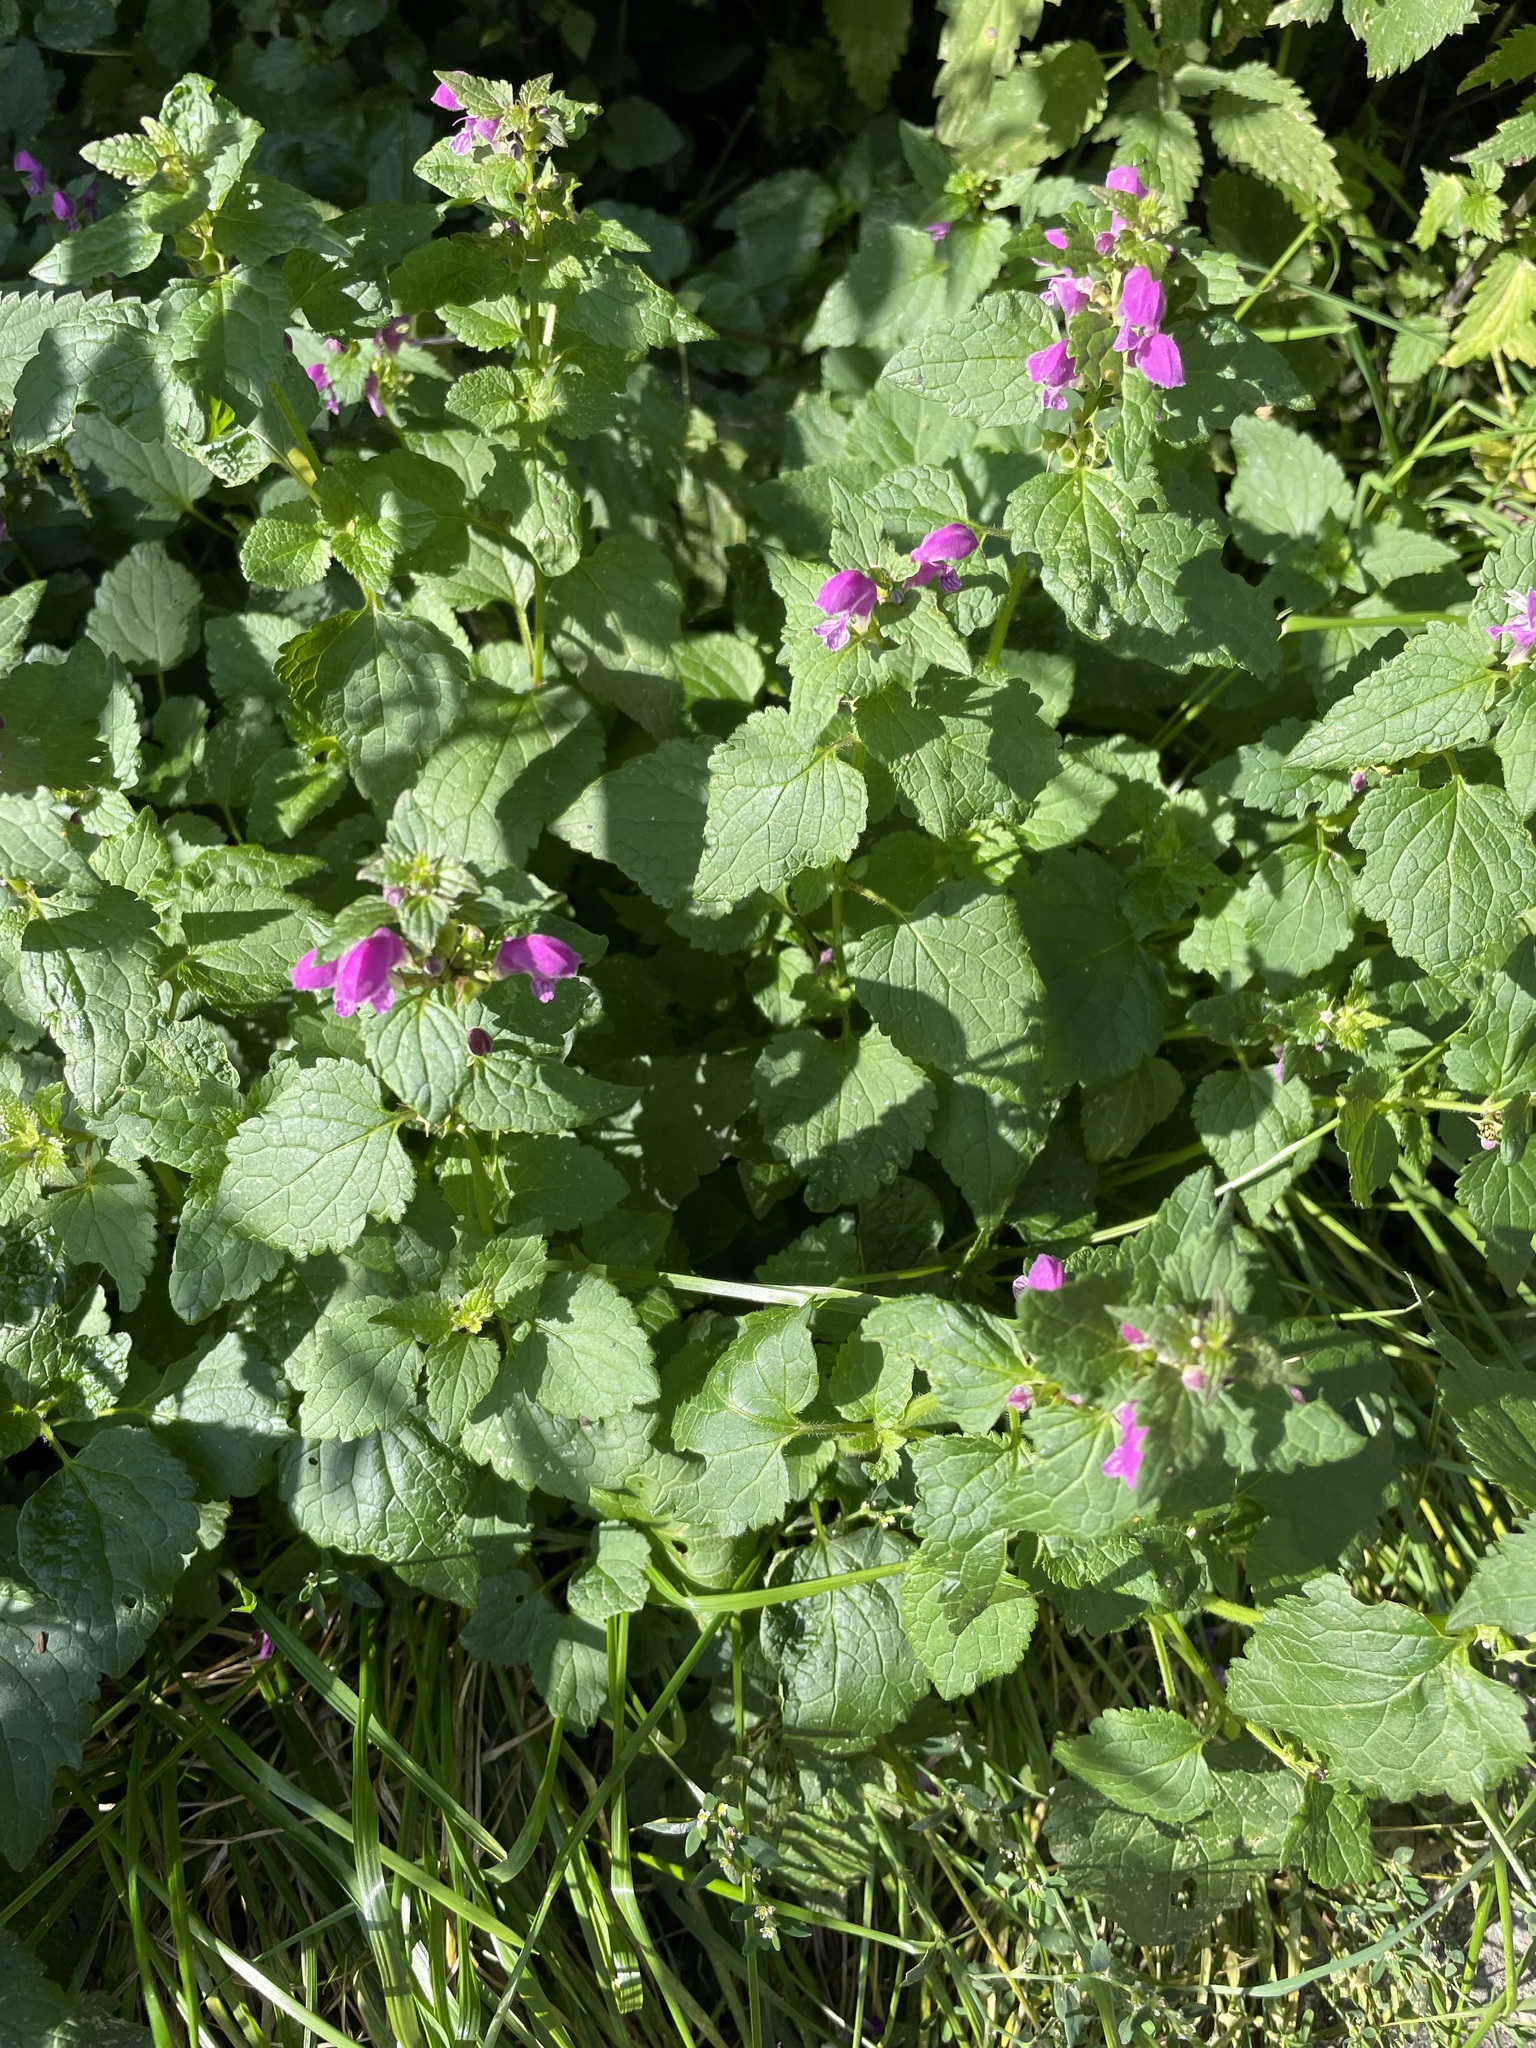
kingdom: Plantae
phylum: Tracheophyta
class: Magnoliopsida
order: Lamiales
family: Lamiaceae
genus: Lamium
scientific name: Lamium maculatum
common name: Spotted dead-nettle
